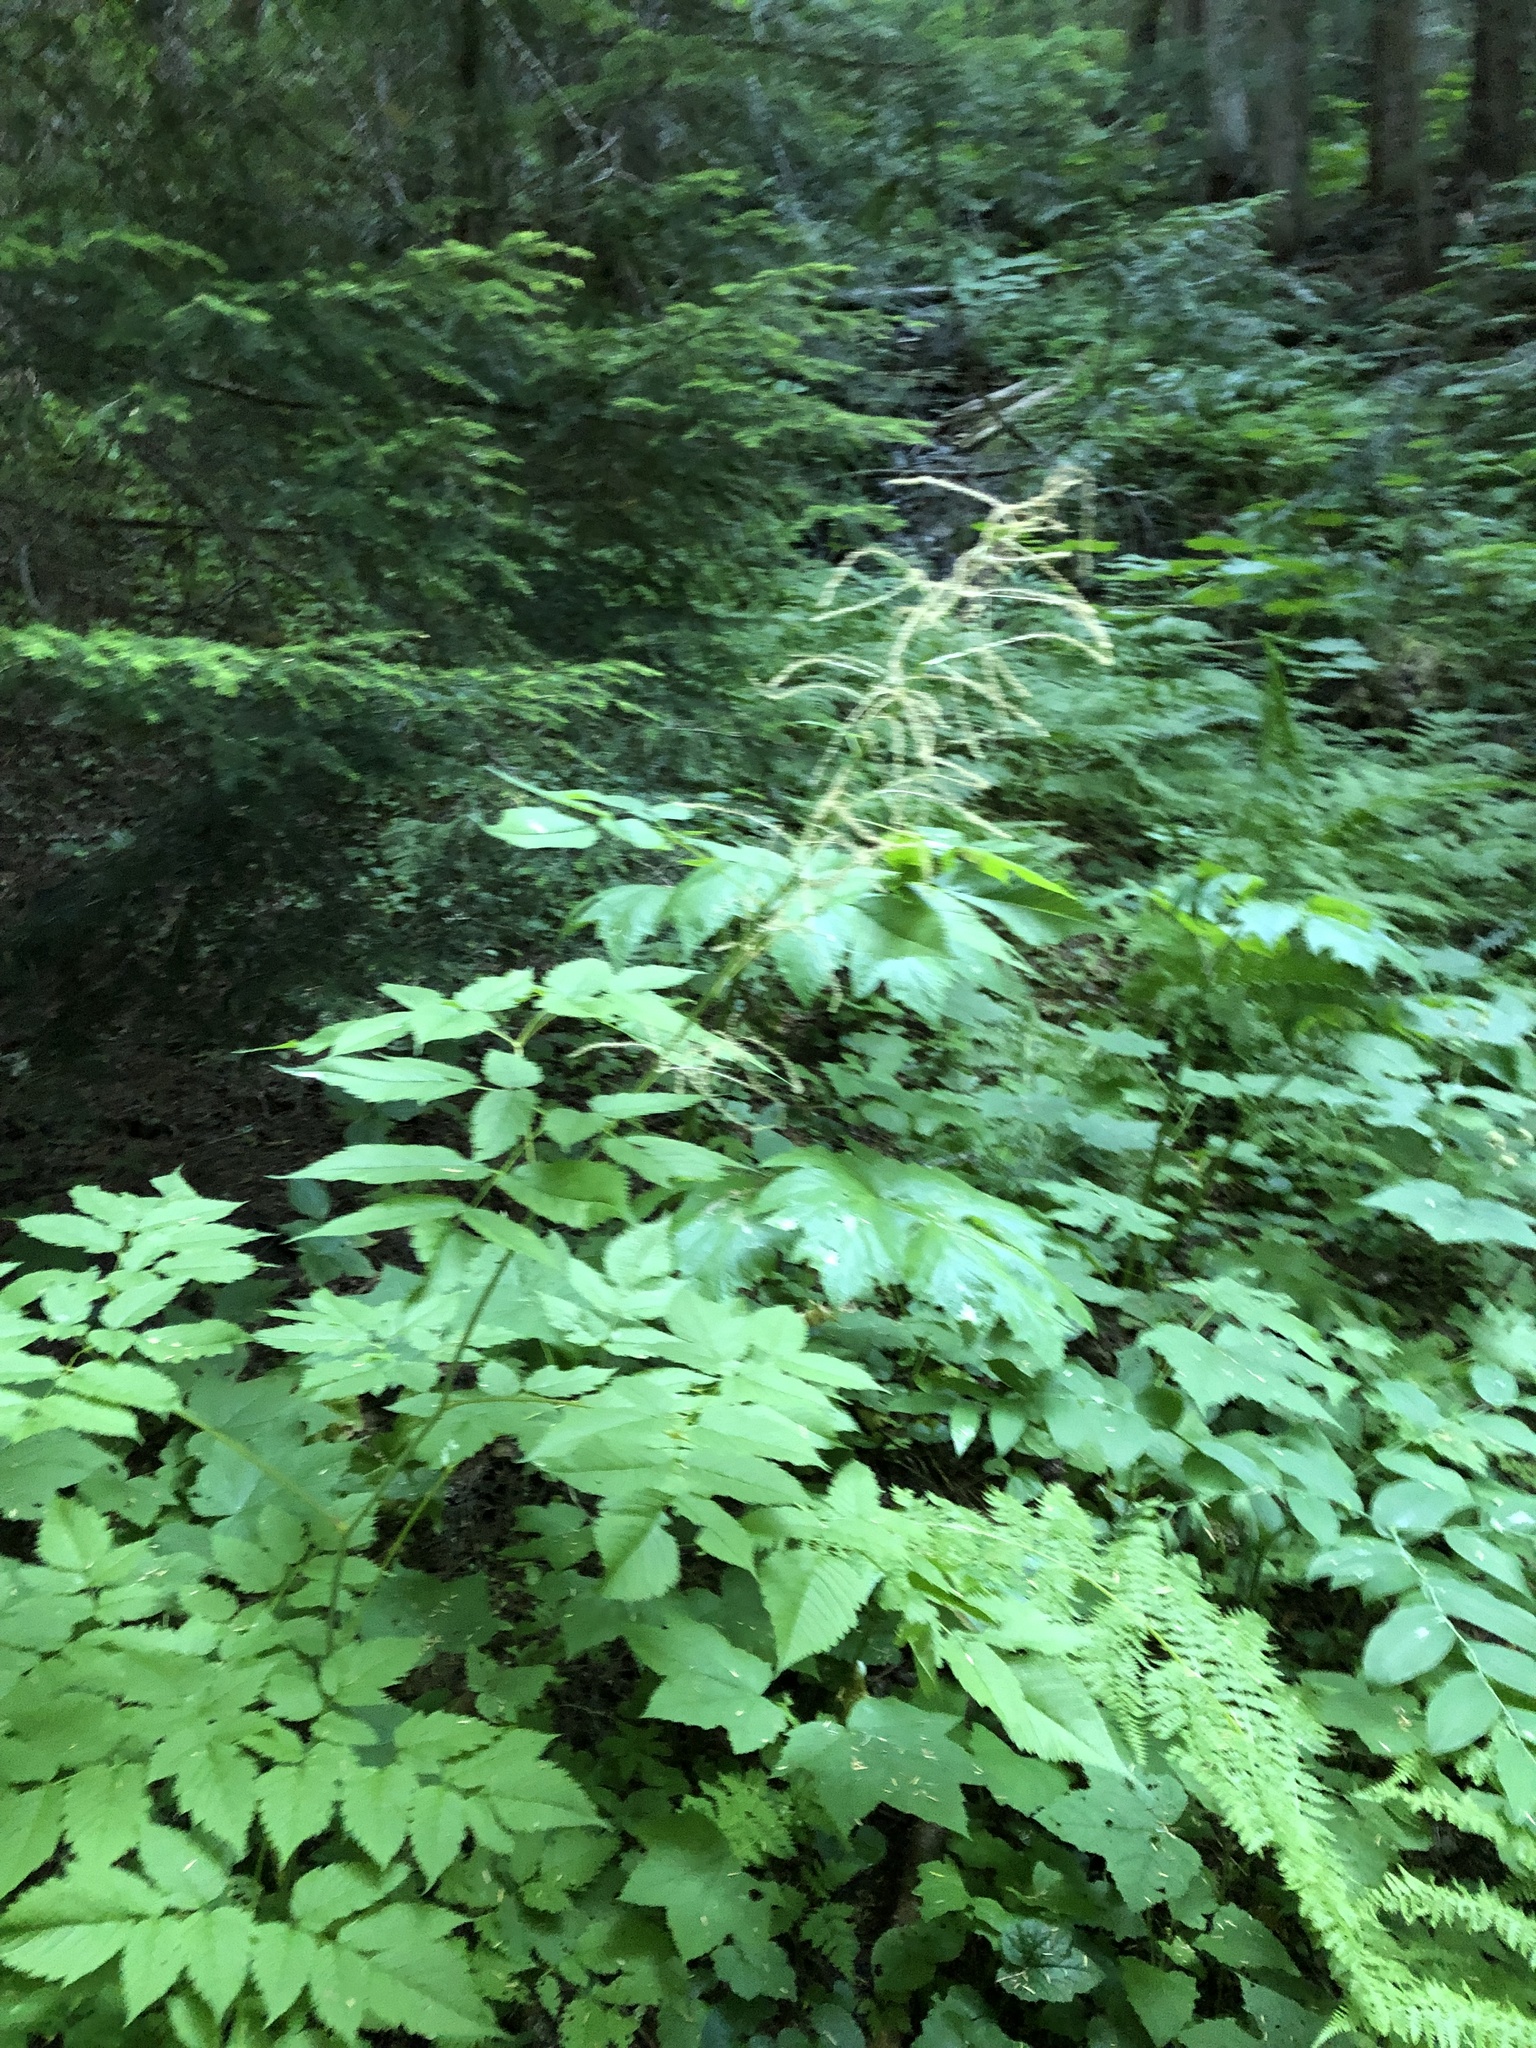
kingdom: Plantae
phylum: Tracheophyta
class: Magnoliopsida
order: Rosales
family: Rosaceae
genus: Aruncus
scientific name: Aruncus dioicus
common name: Buck's-beard
